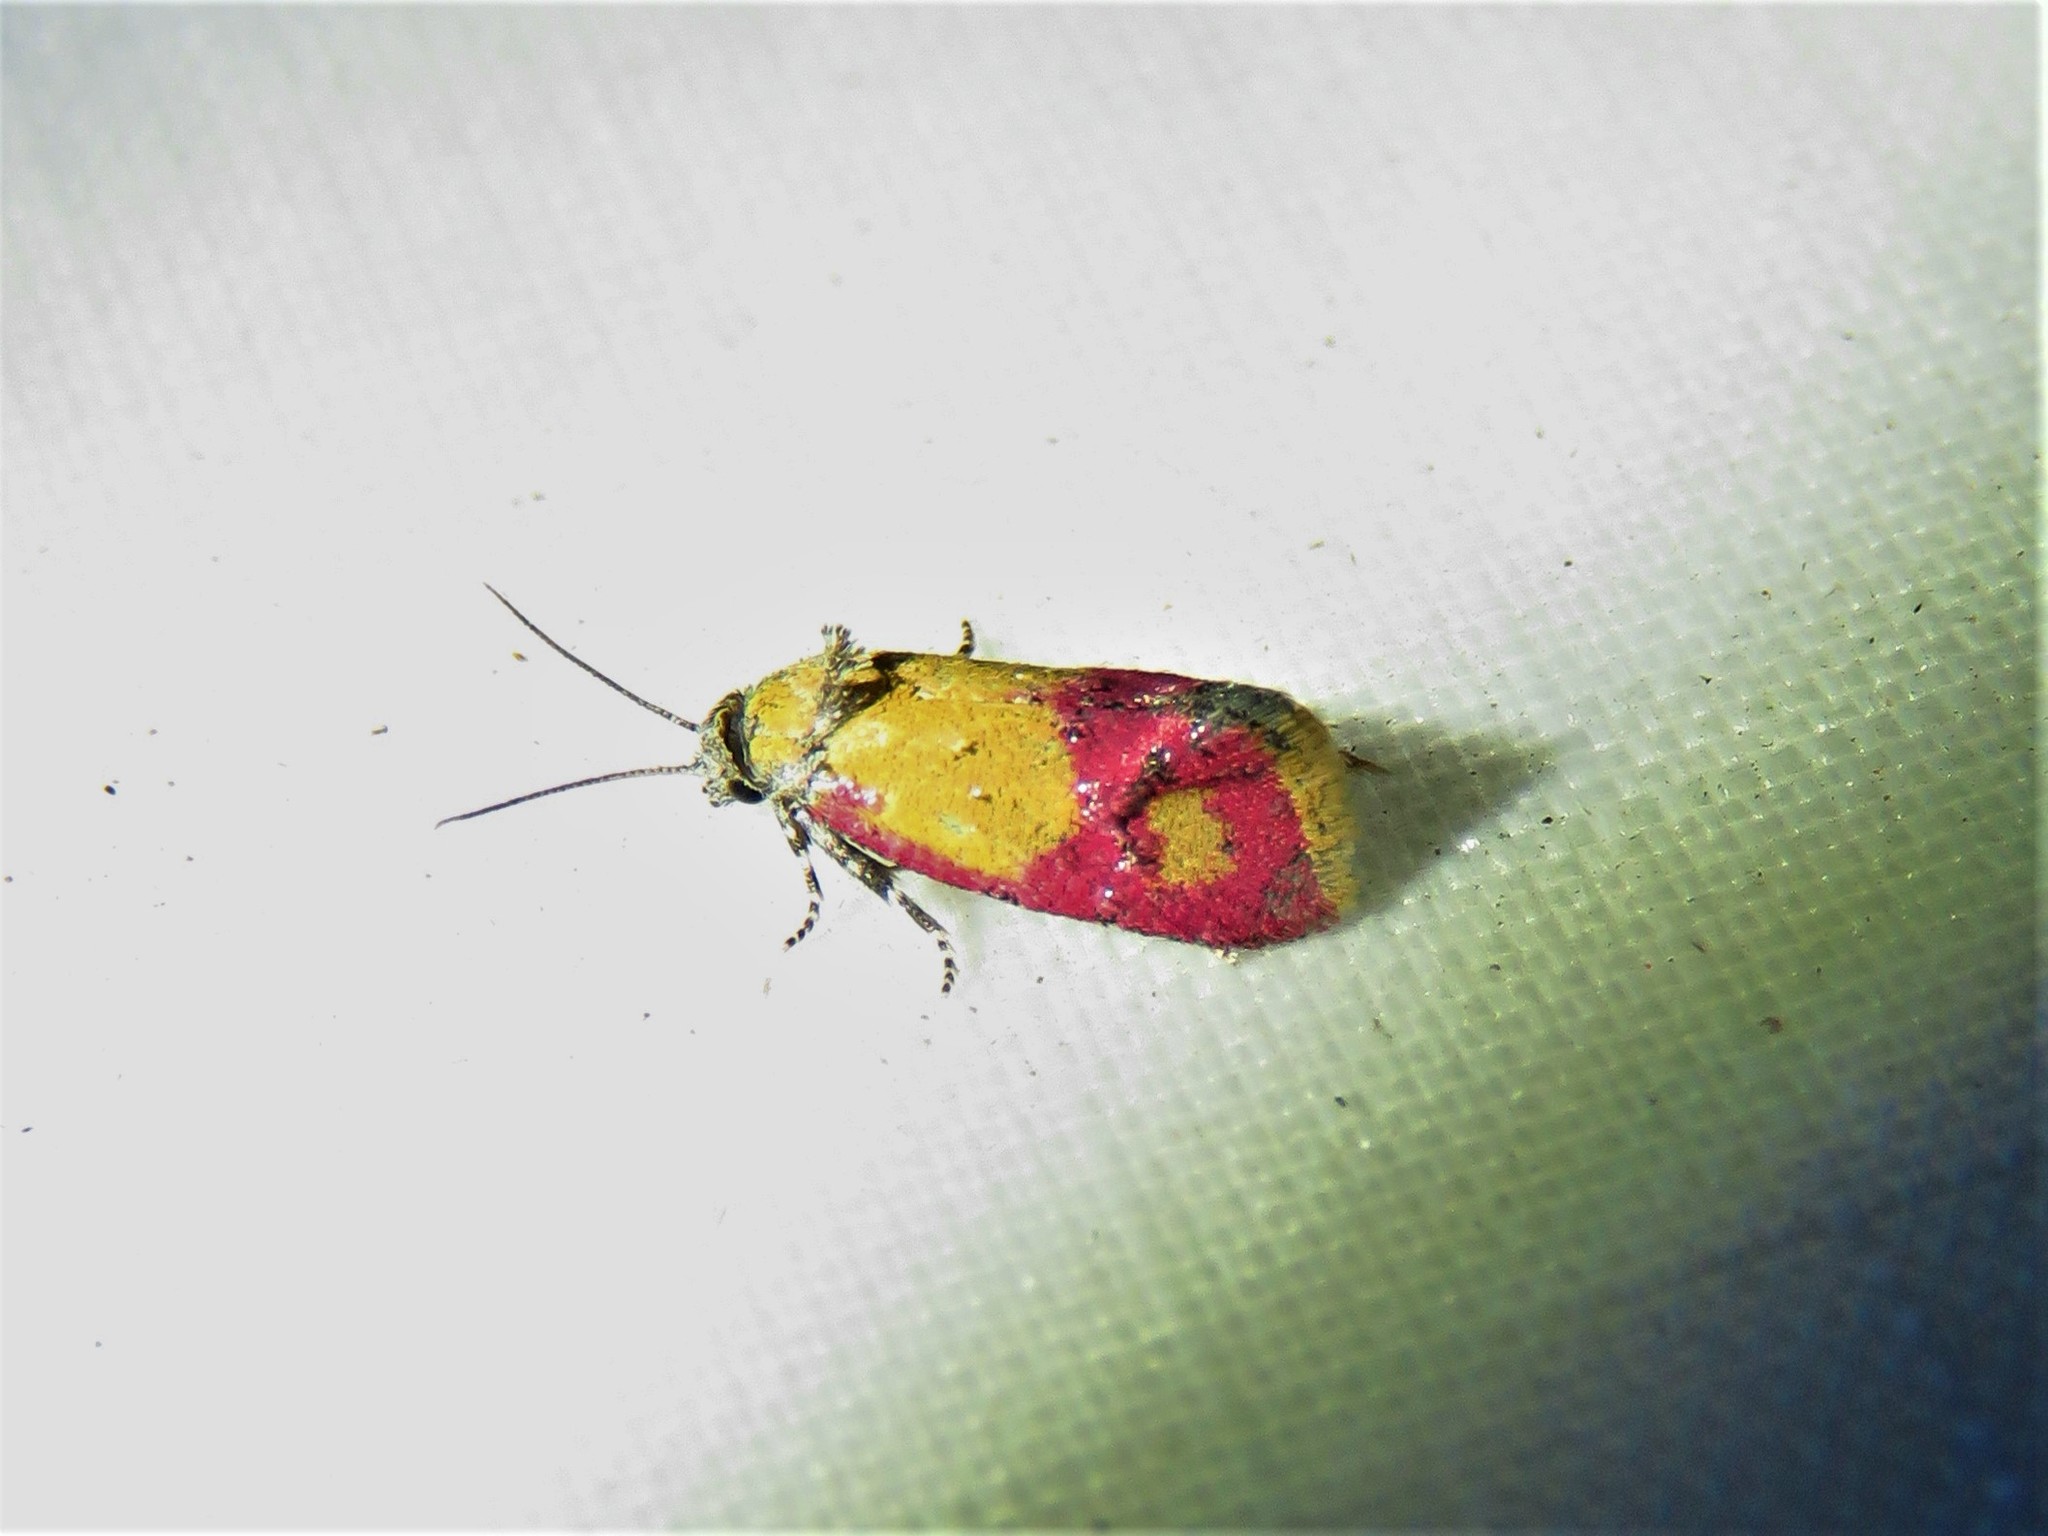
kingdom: Animalia
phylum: Arthropoda
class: Insecta
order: Lepidoptera
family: Tortricidae
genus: Conchylis
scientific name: Conchylis oenotherana
